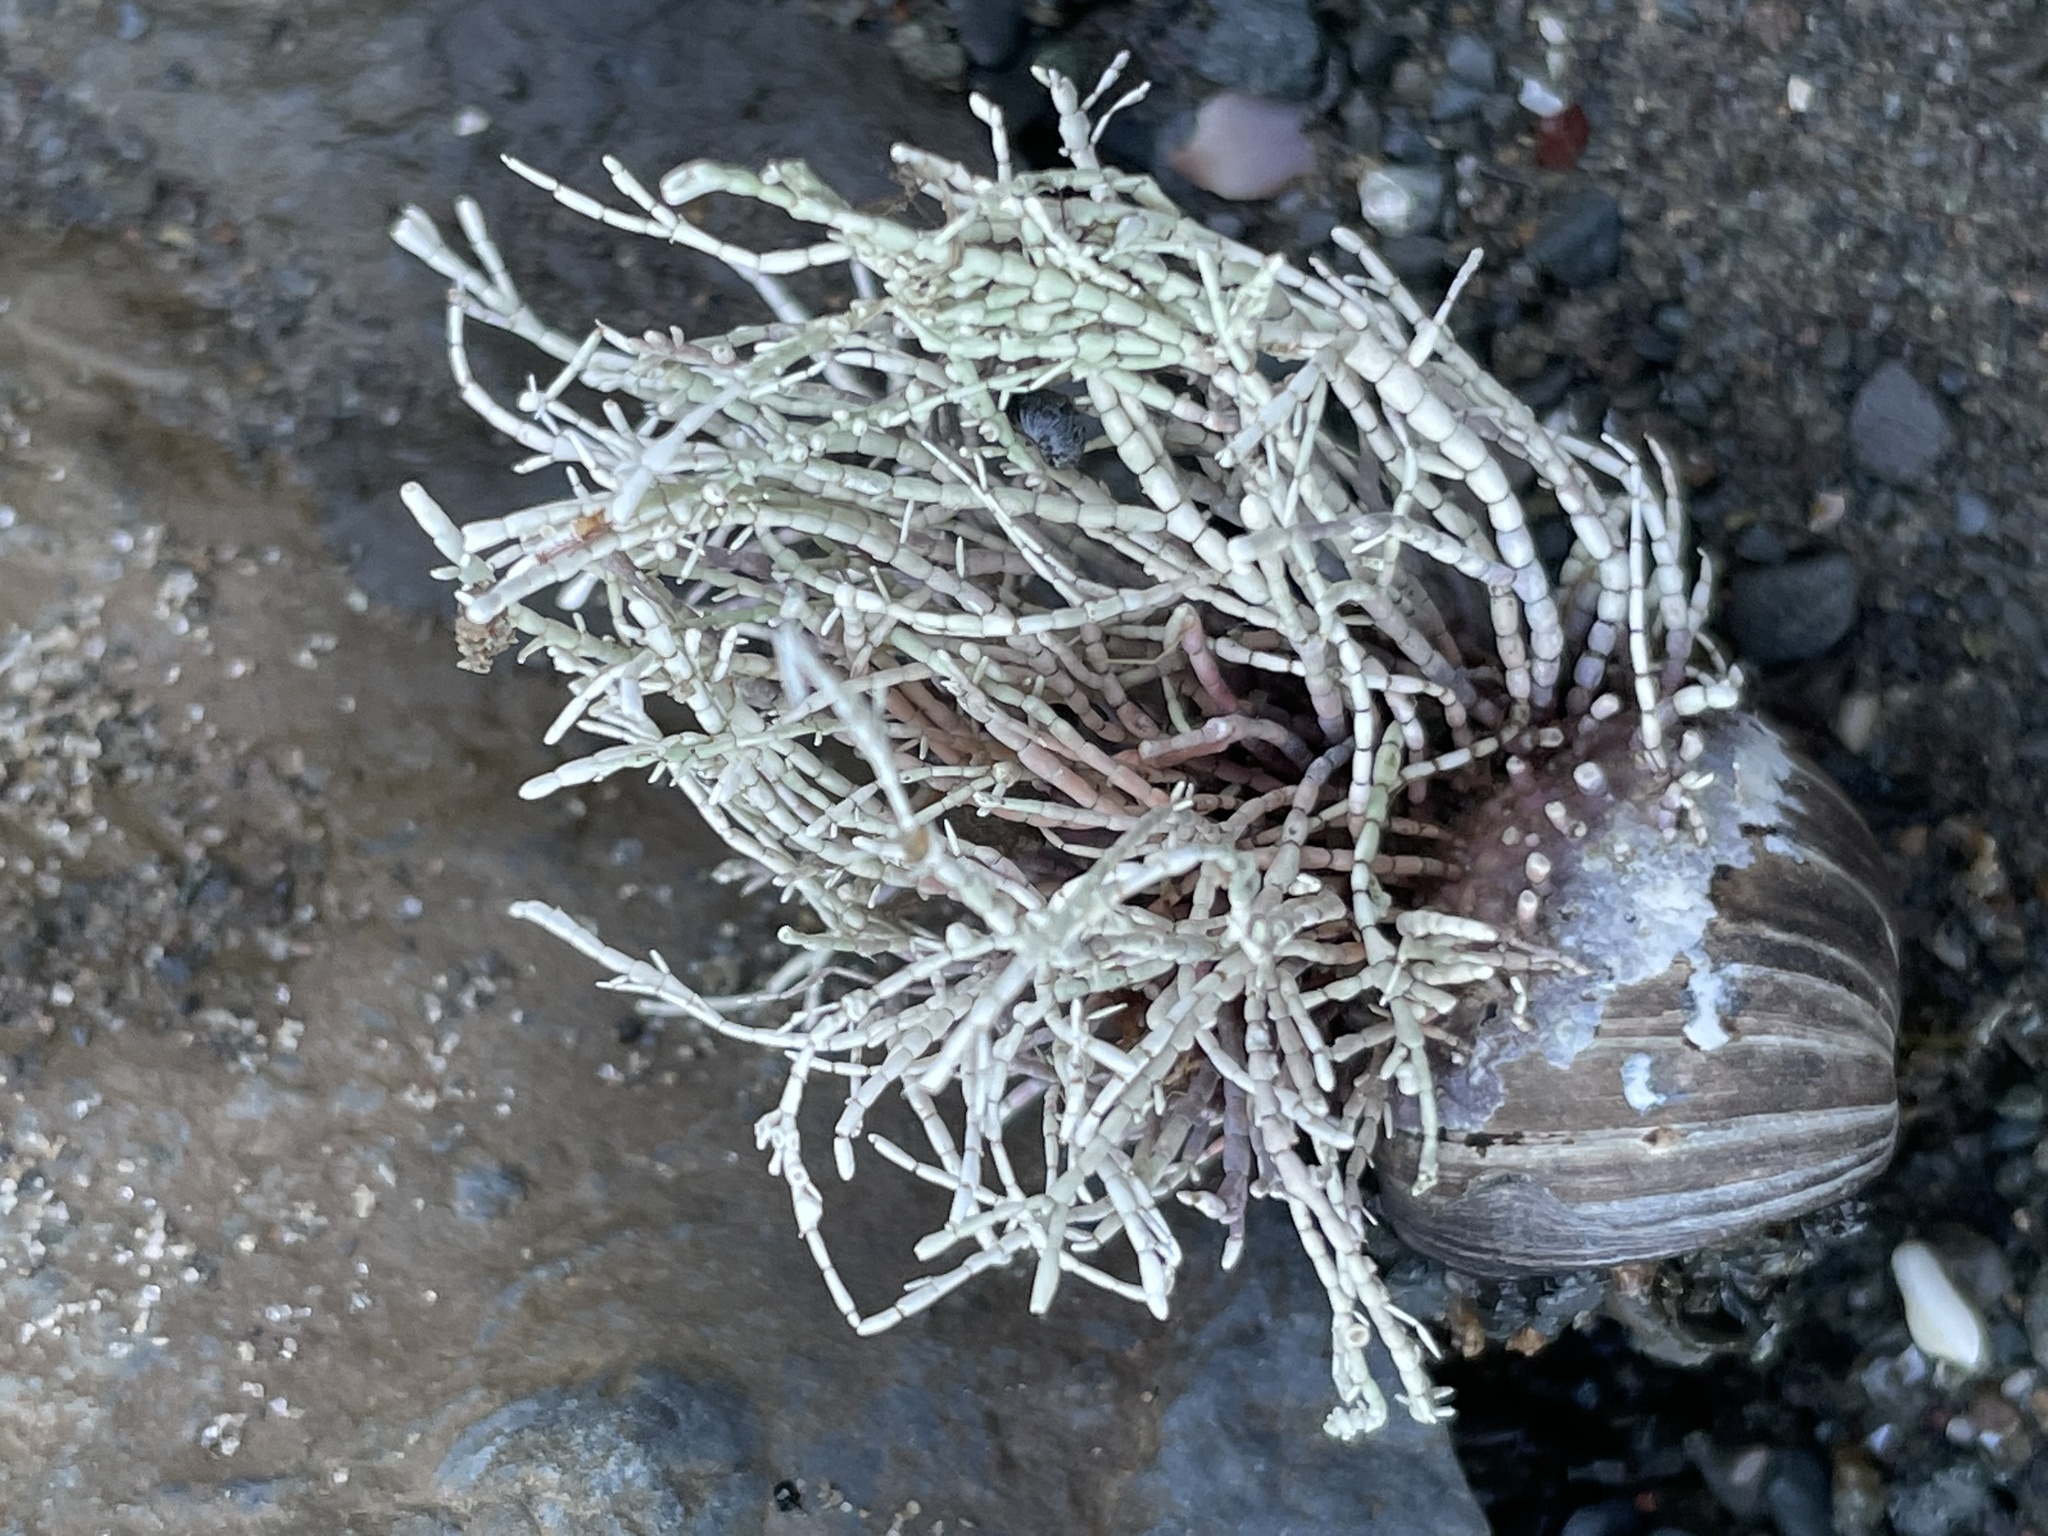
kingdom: Plantae
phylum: Rhodophyta
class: Florideophyceae
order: Corallinales
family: Corallinaceae
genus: Corallina
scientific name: Corallina officinalis
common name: Coral weed
